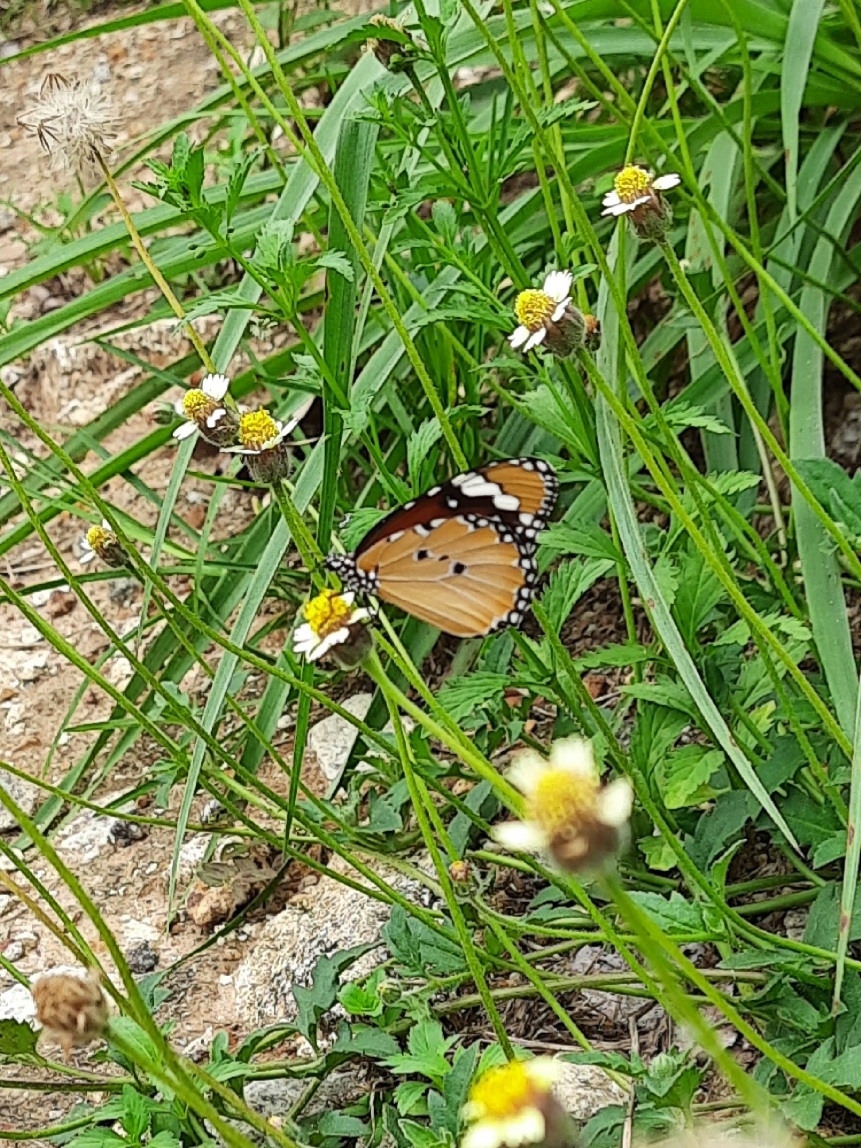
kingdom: Animalia
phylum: Arthropoda
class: Insecta
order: Lepidoptera
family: Nymphalidae
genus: Danaus
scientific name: Danaus chrysippus
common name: Plain tiger
